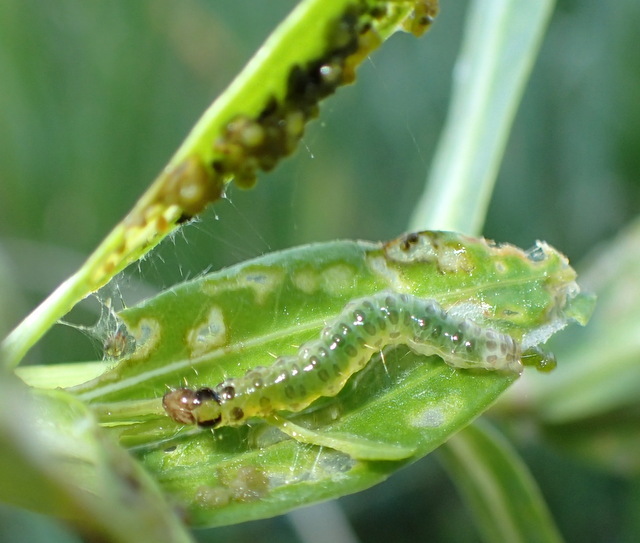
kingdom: Animalia
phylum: Arthropoda
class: Insecta
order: Lepidoptera
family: Crambidae
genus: Herpetogramma
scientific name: Herpetogramma bipunctalis
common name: Southern beet webworm
